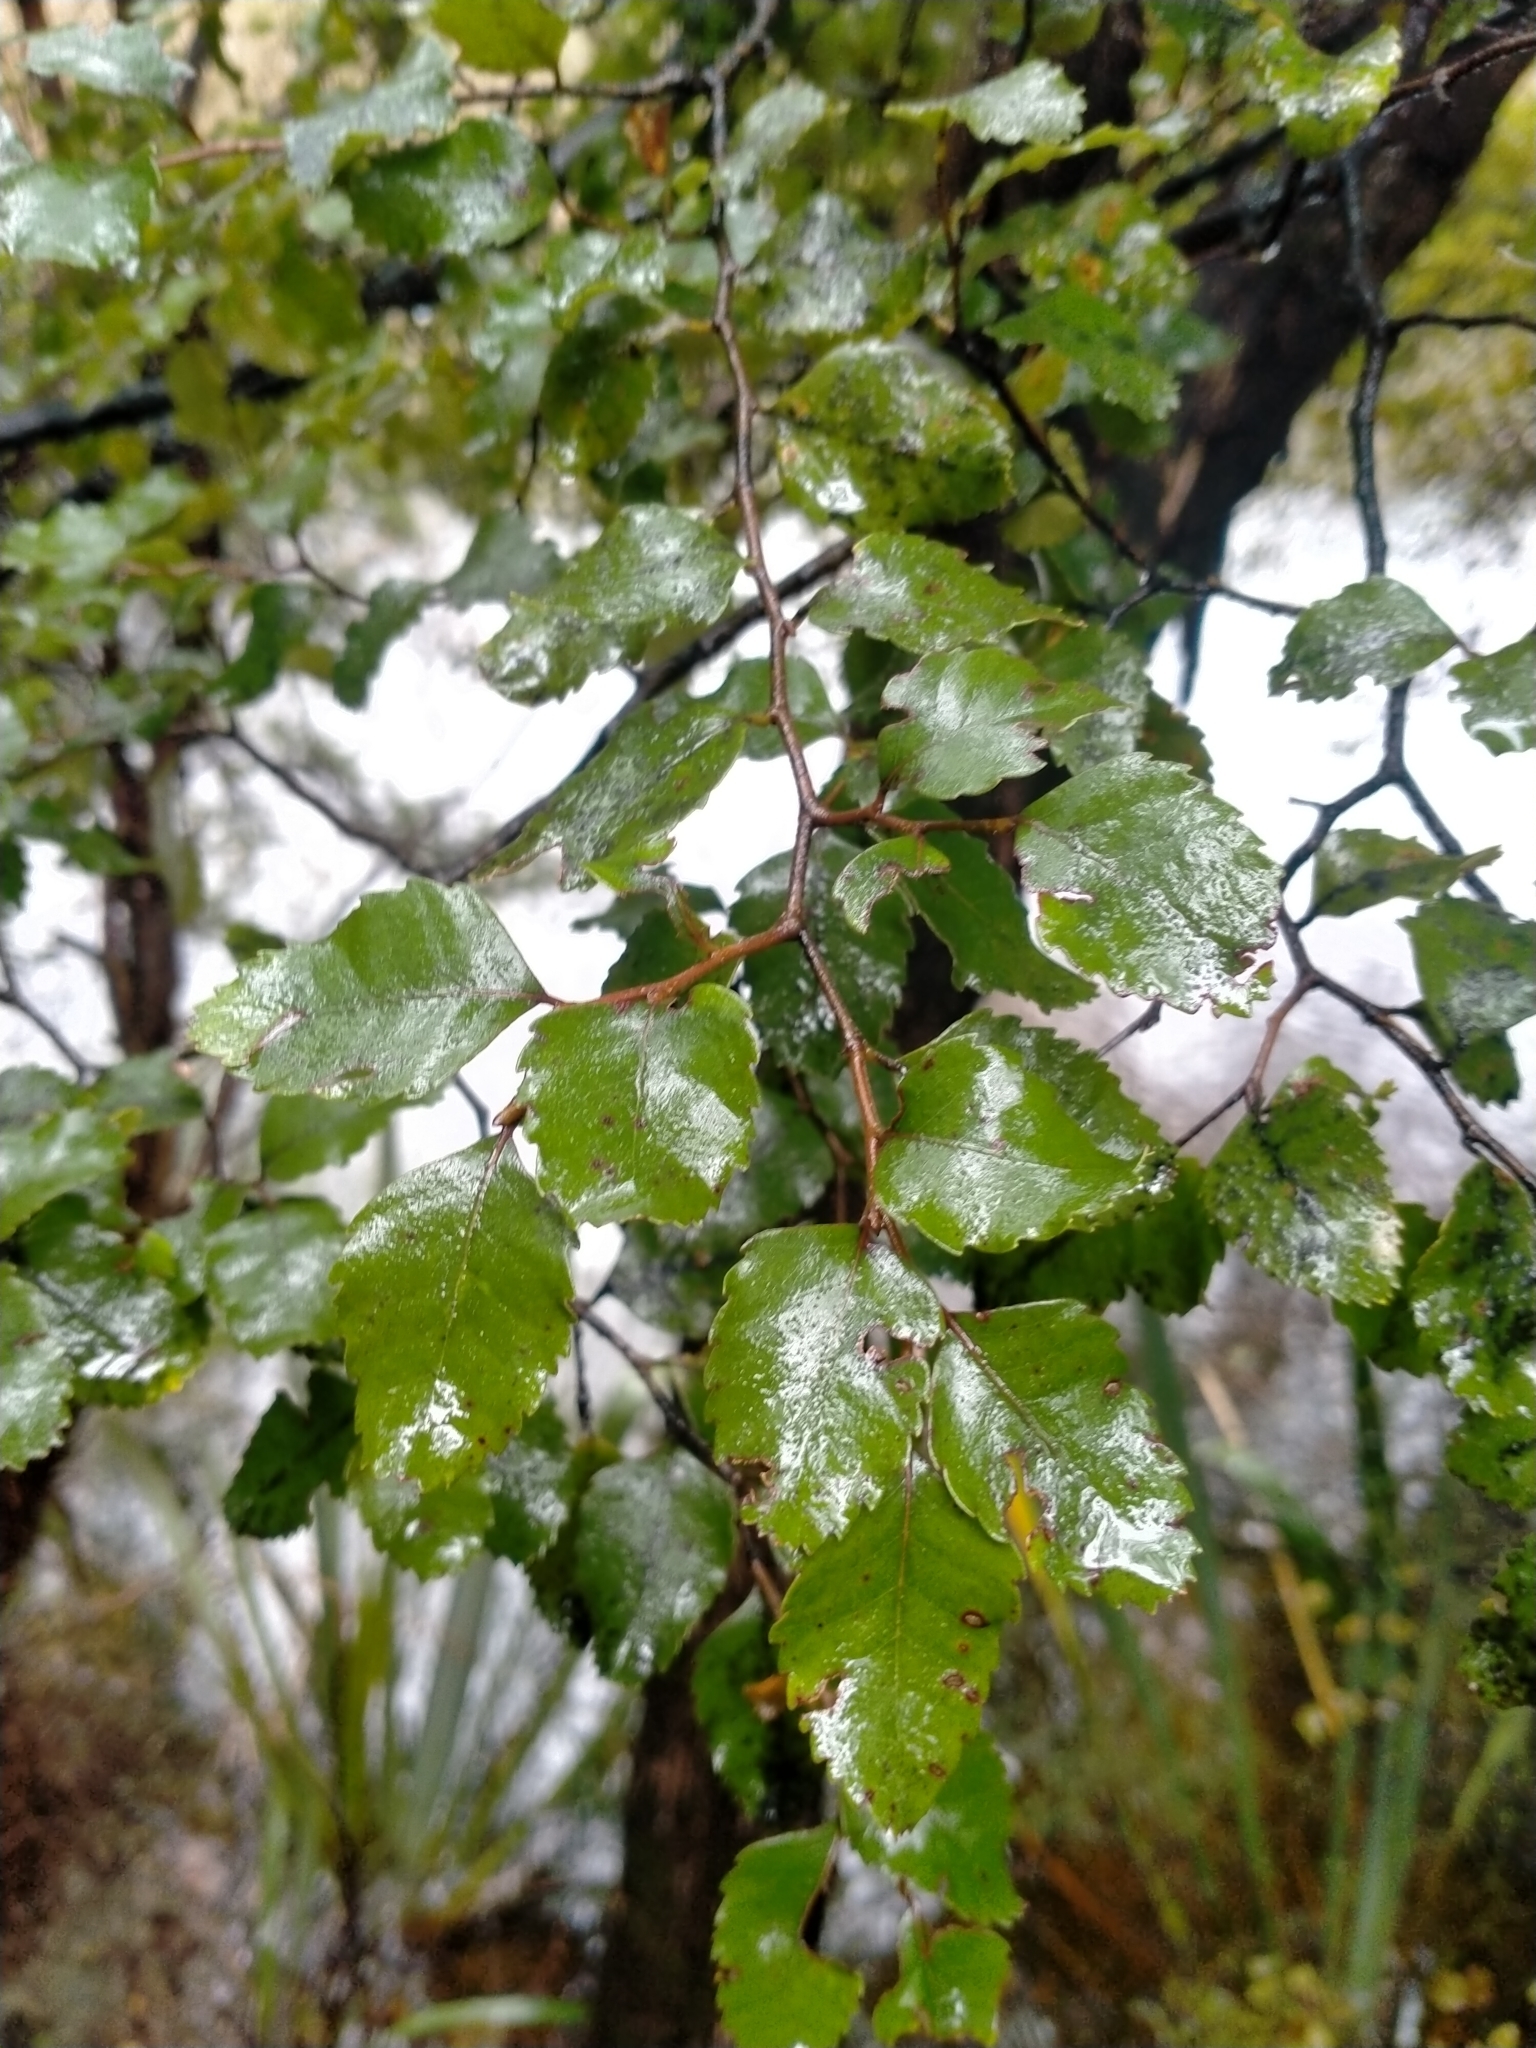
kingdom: Plantae
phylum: Tracheophyta
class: Magnoliopsida
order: Fagales
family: Nothofagaceae
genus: Nothofagus
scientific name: Nothofagus truncata
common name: Hard beech
